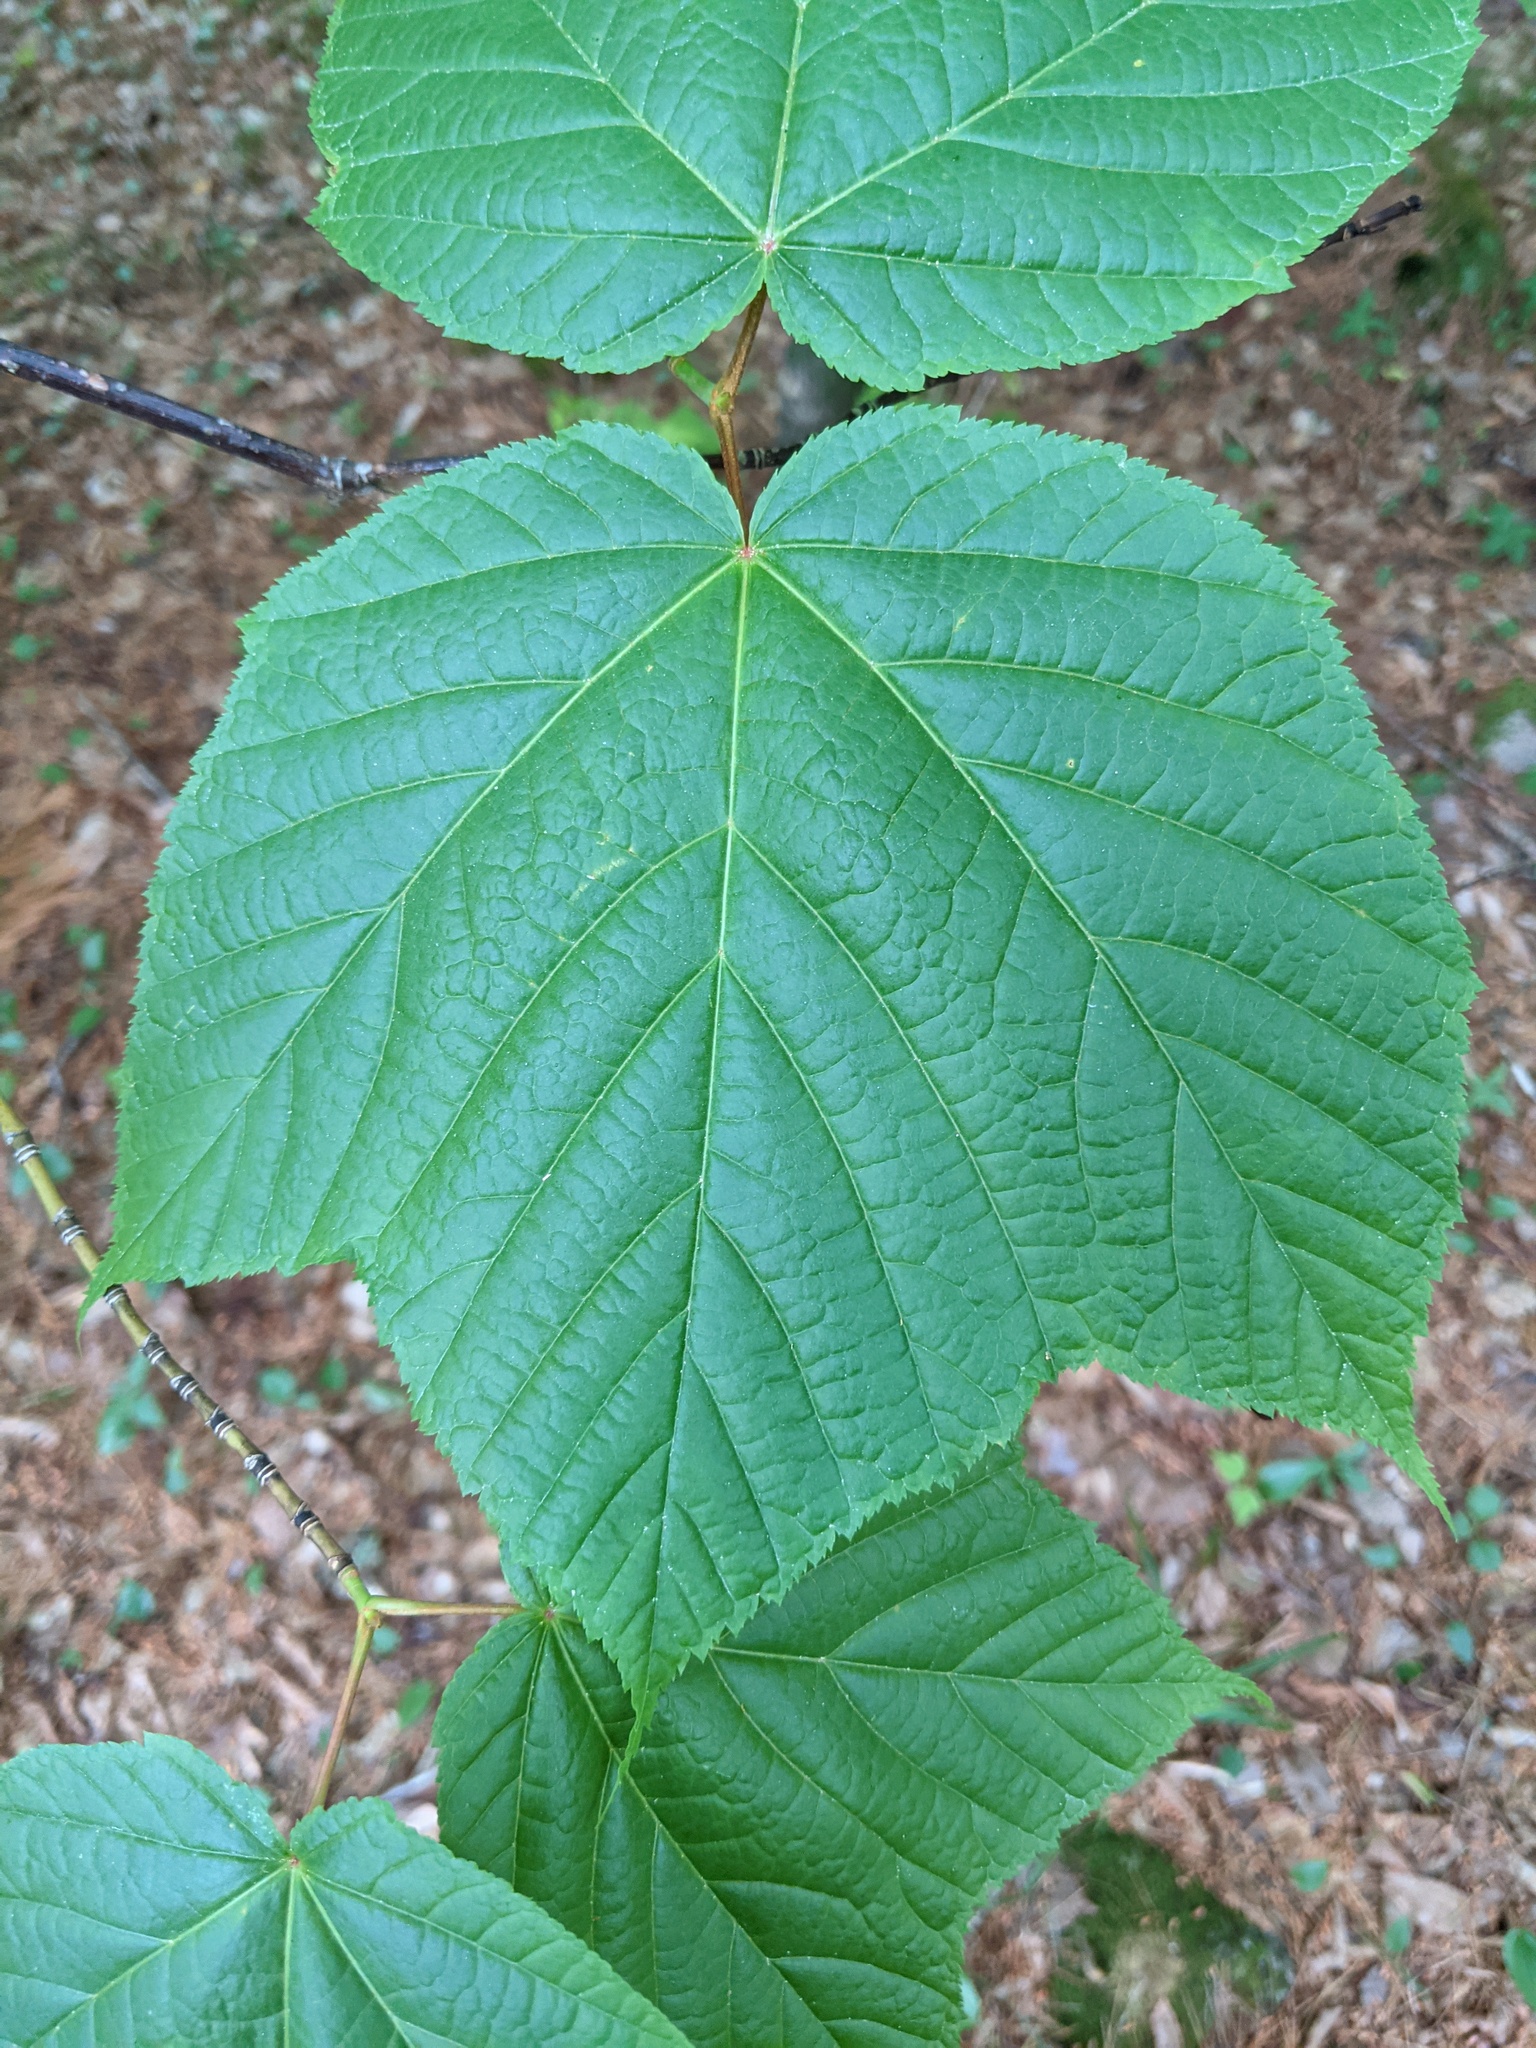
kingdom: Plantae
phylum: Tracheophyta
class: Magnoliopsida
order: Sapindales
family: Sapindaceae
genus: Acer
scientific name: Acer pensylvanicum
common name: Moosewood
